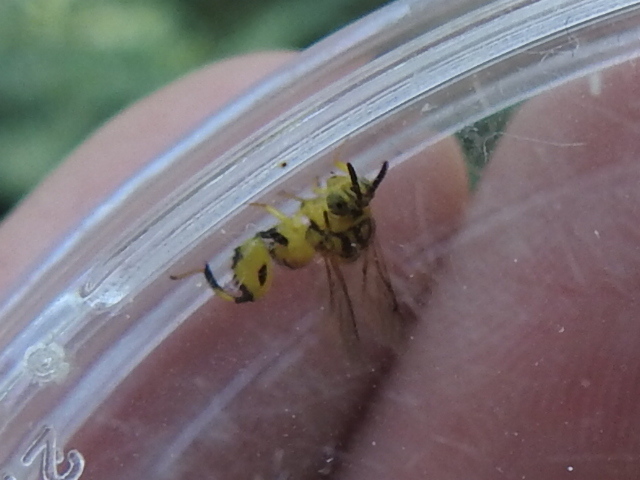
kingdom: Animalia
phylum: Arthropoda
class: Insecta
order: Hymenoptera
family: Chalcididae
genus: Conura
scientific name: Conura
